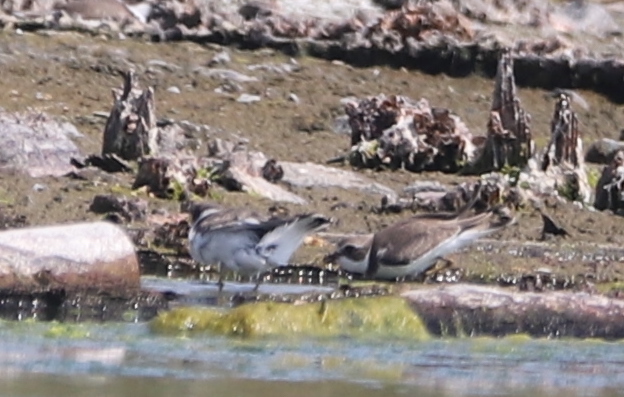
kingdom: Animalia
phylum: Chordata
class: Aves
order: Charadriiformes
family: Charadriidae
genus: Charadrius
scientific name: Charadrius semipalmatus
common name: Semipalmated plover
